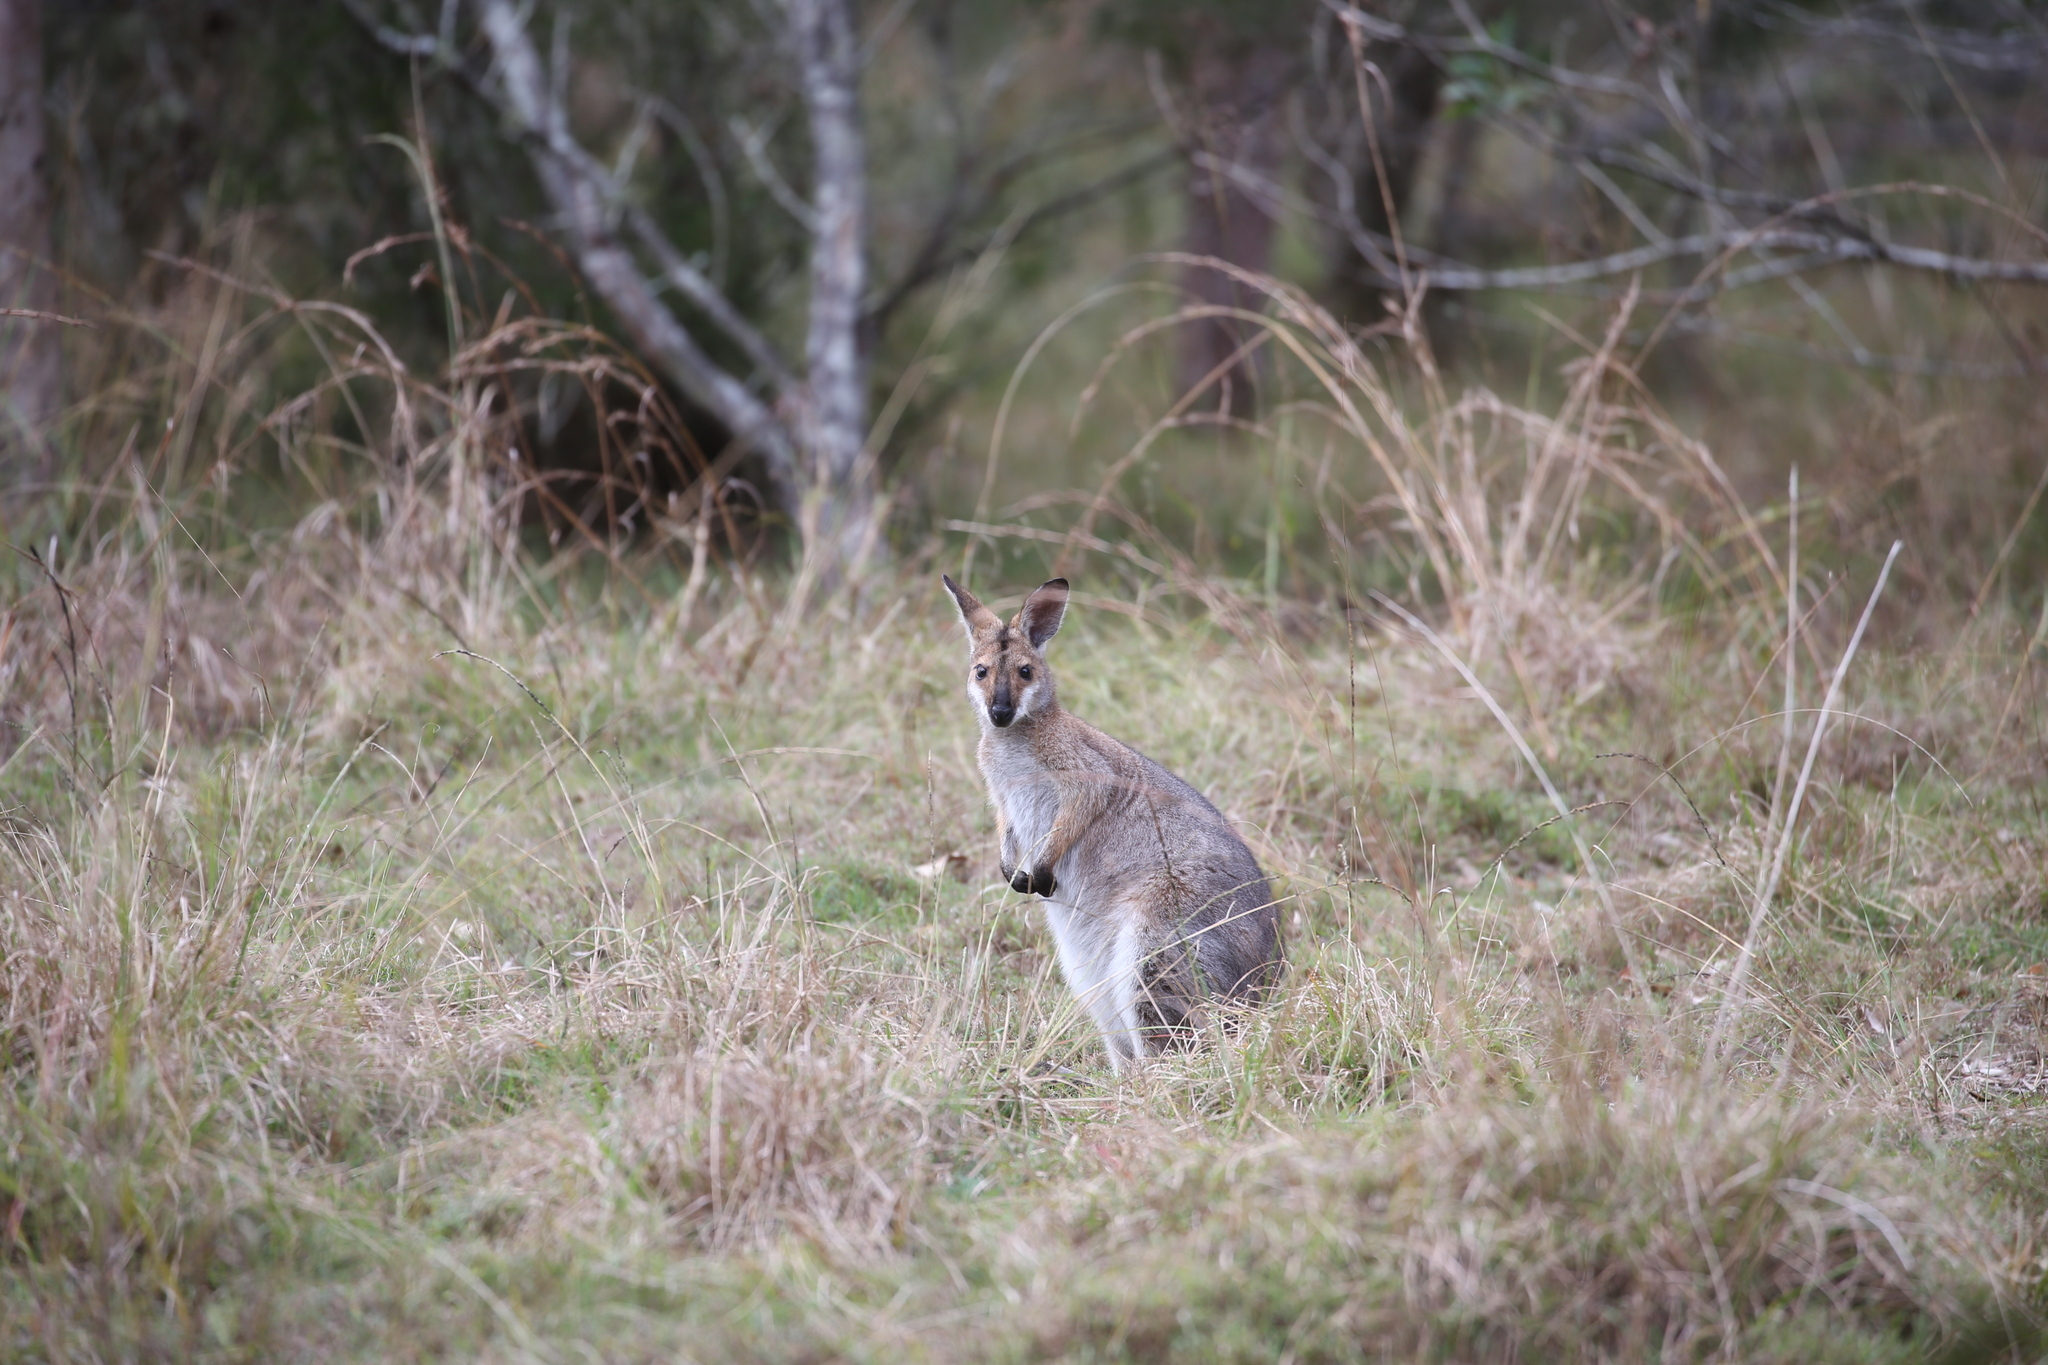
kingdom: Animalia
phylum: Chordata
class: Mammalia
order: Diprotodontia
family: Macropodidae
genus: Notamacropus
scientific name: Notamacropus rufogriseus
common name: Red-necked wallaby
